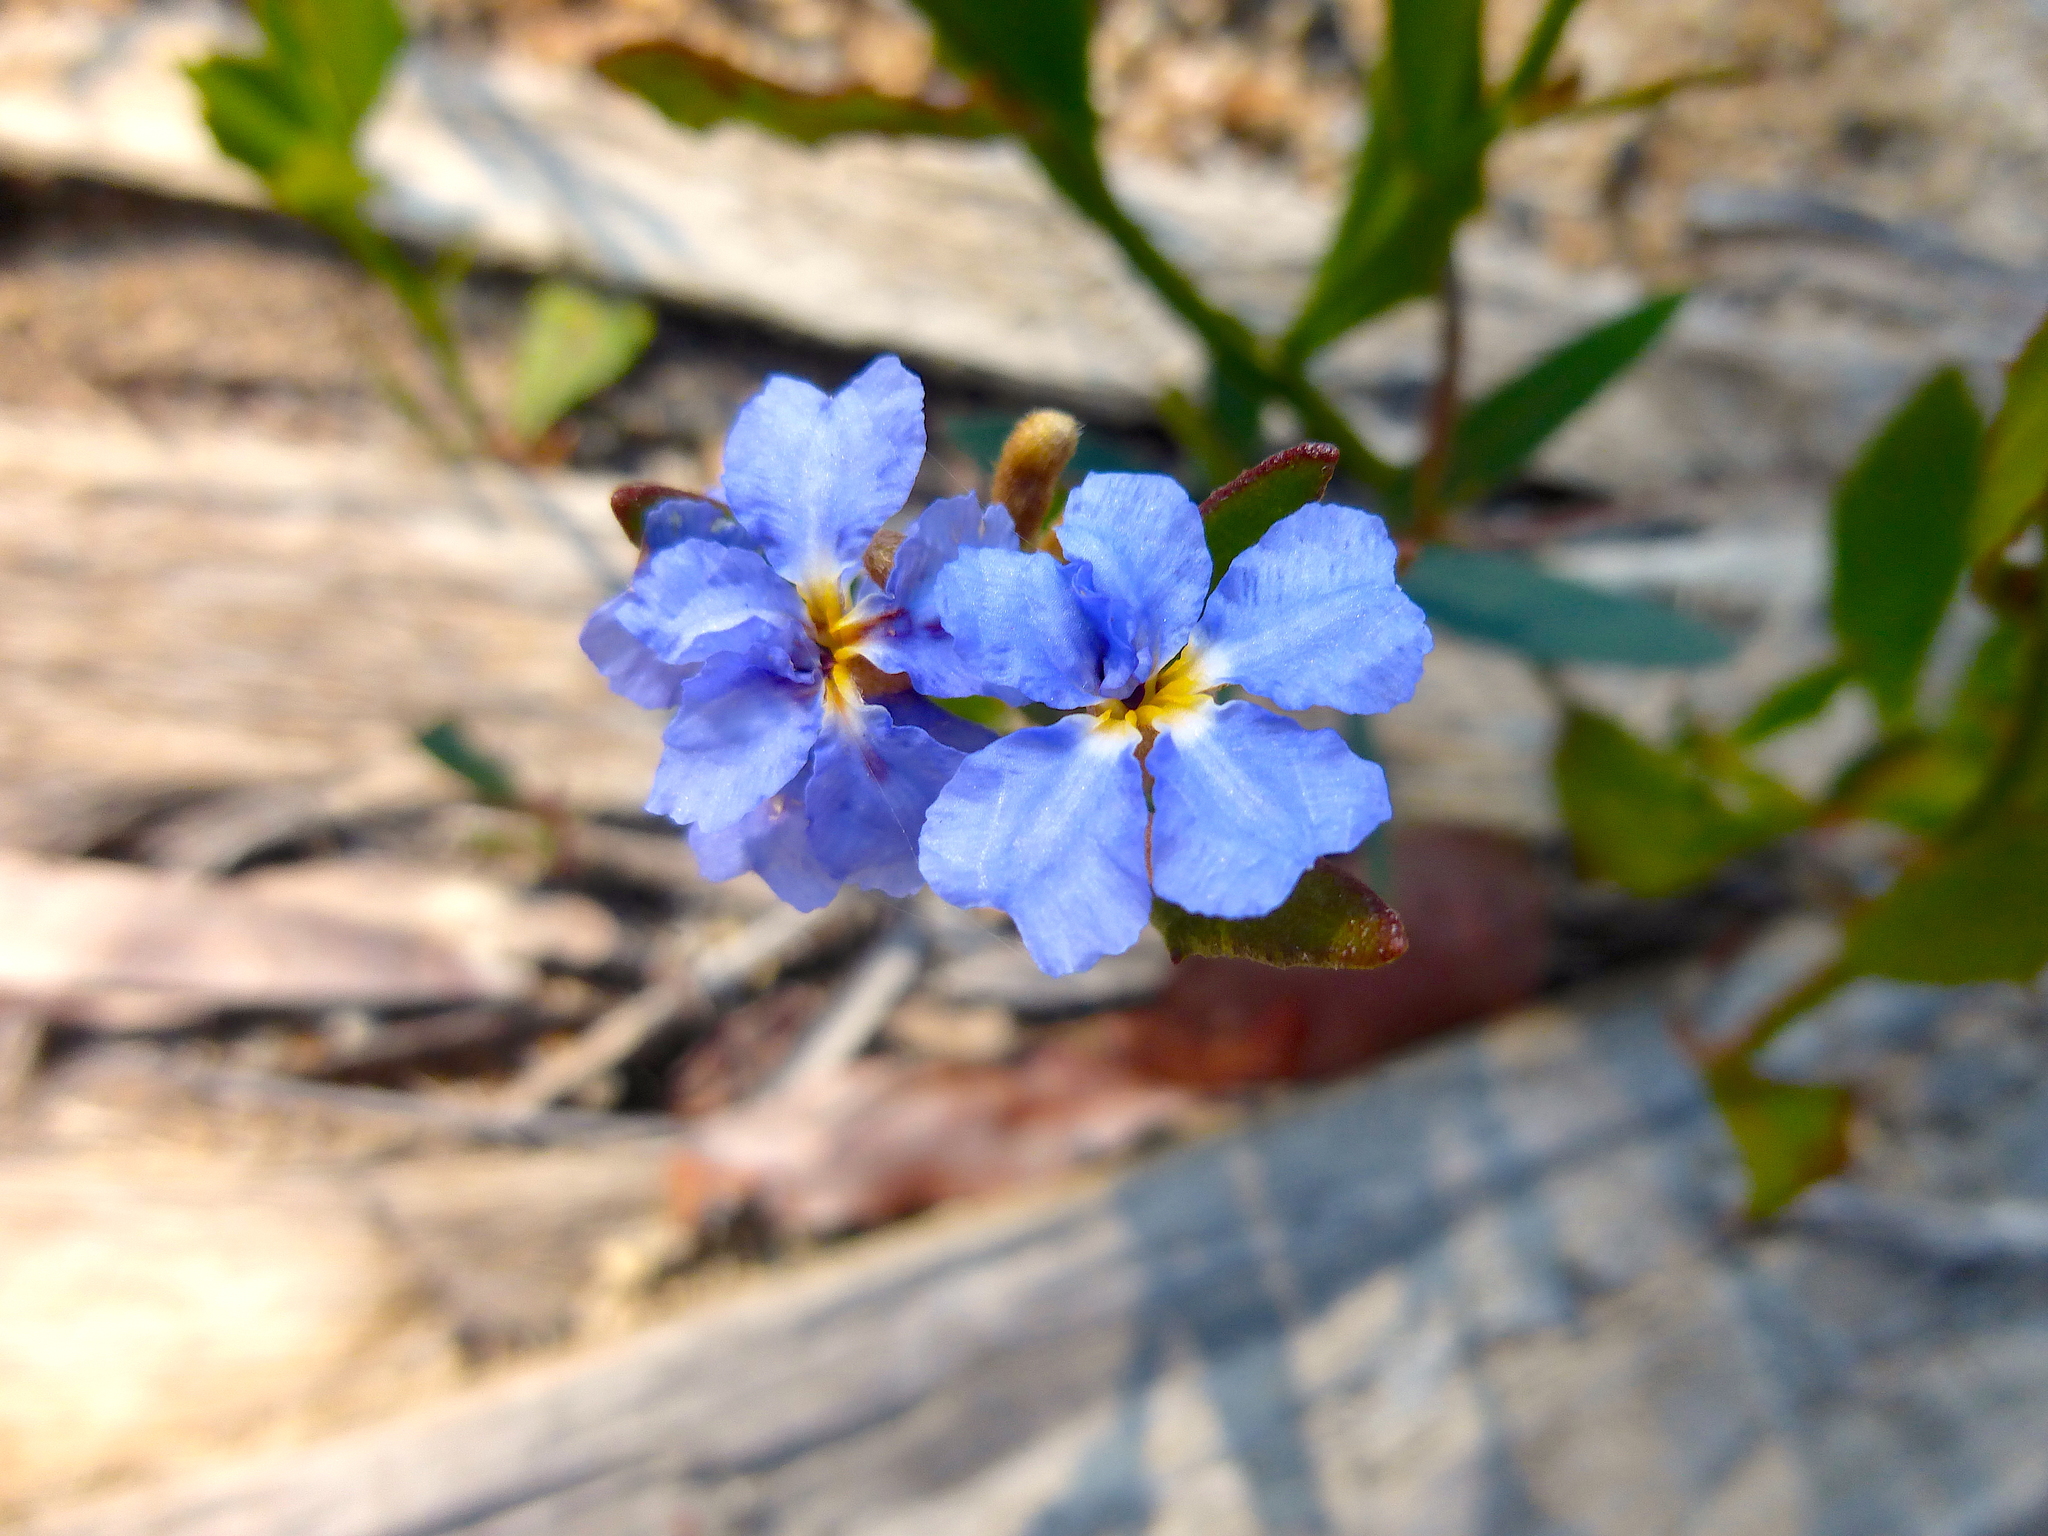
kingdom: Plantae
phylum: Tracheophyta
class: Magnoliopsida
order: Asterales
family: Goodeniaceae
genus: Dampiera
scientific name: Dampiera stricta
